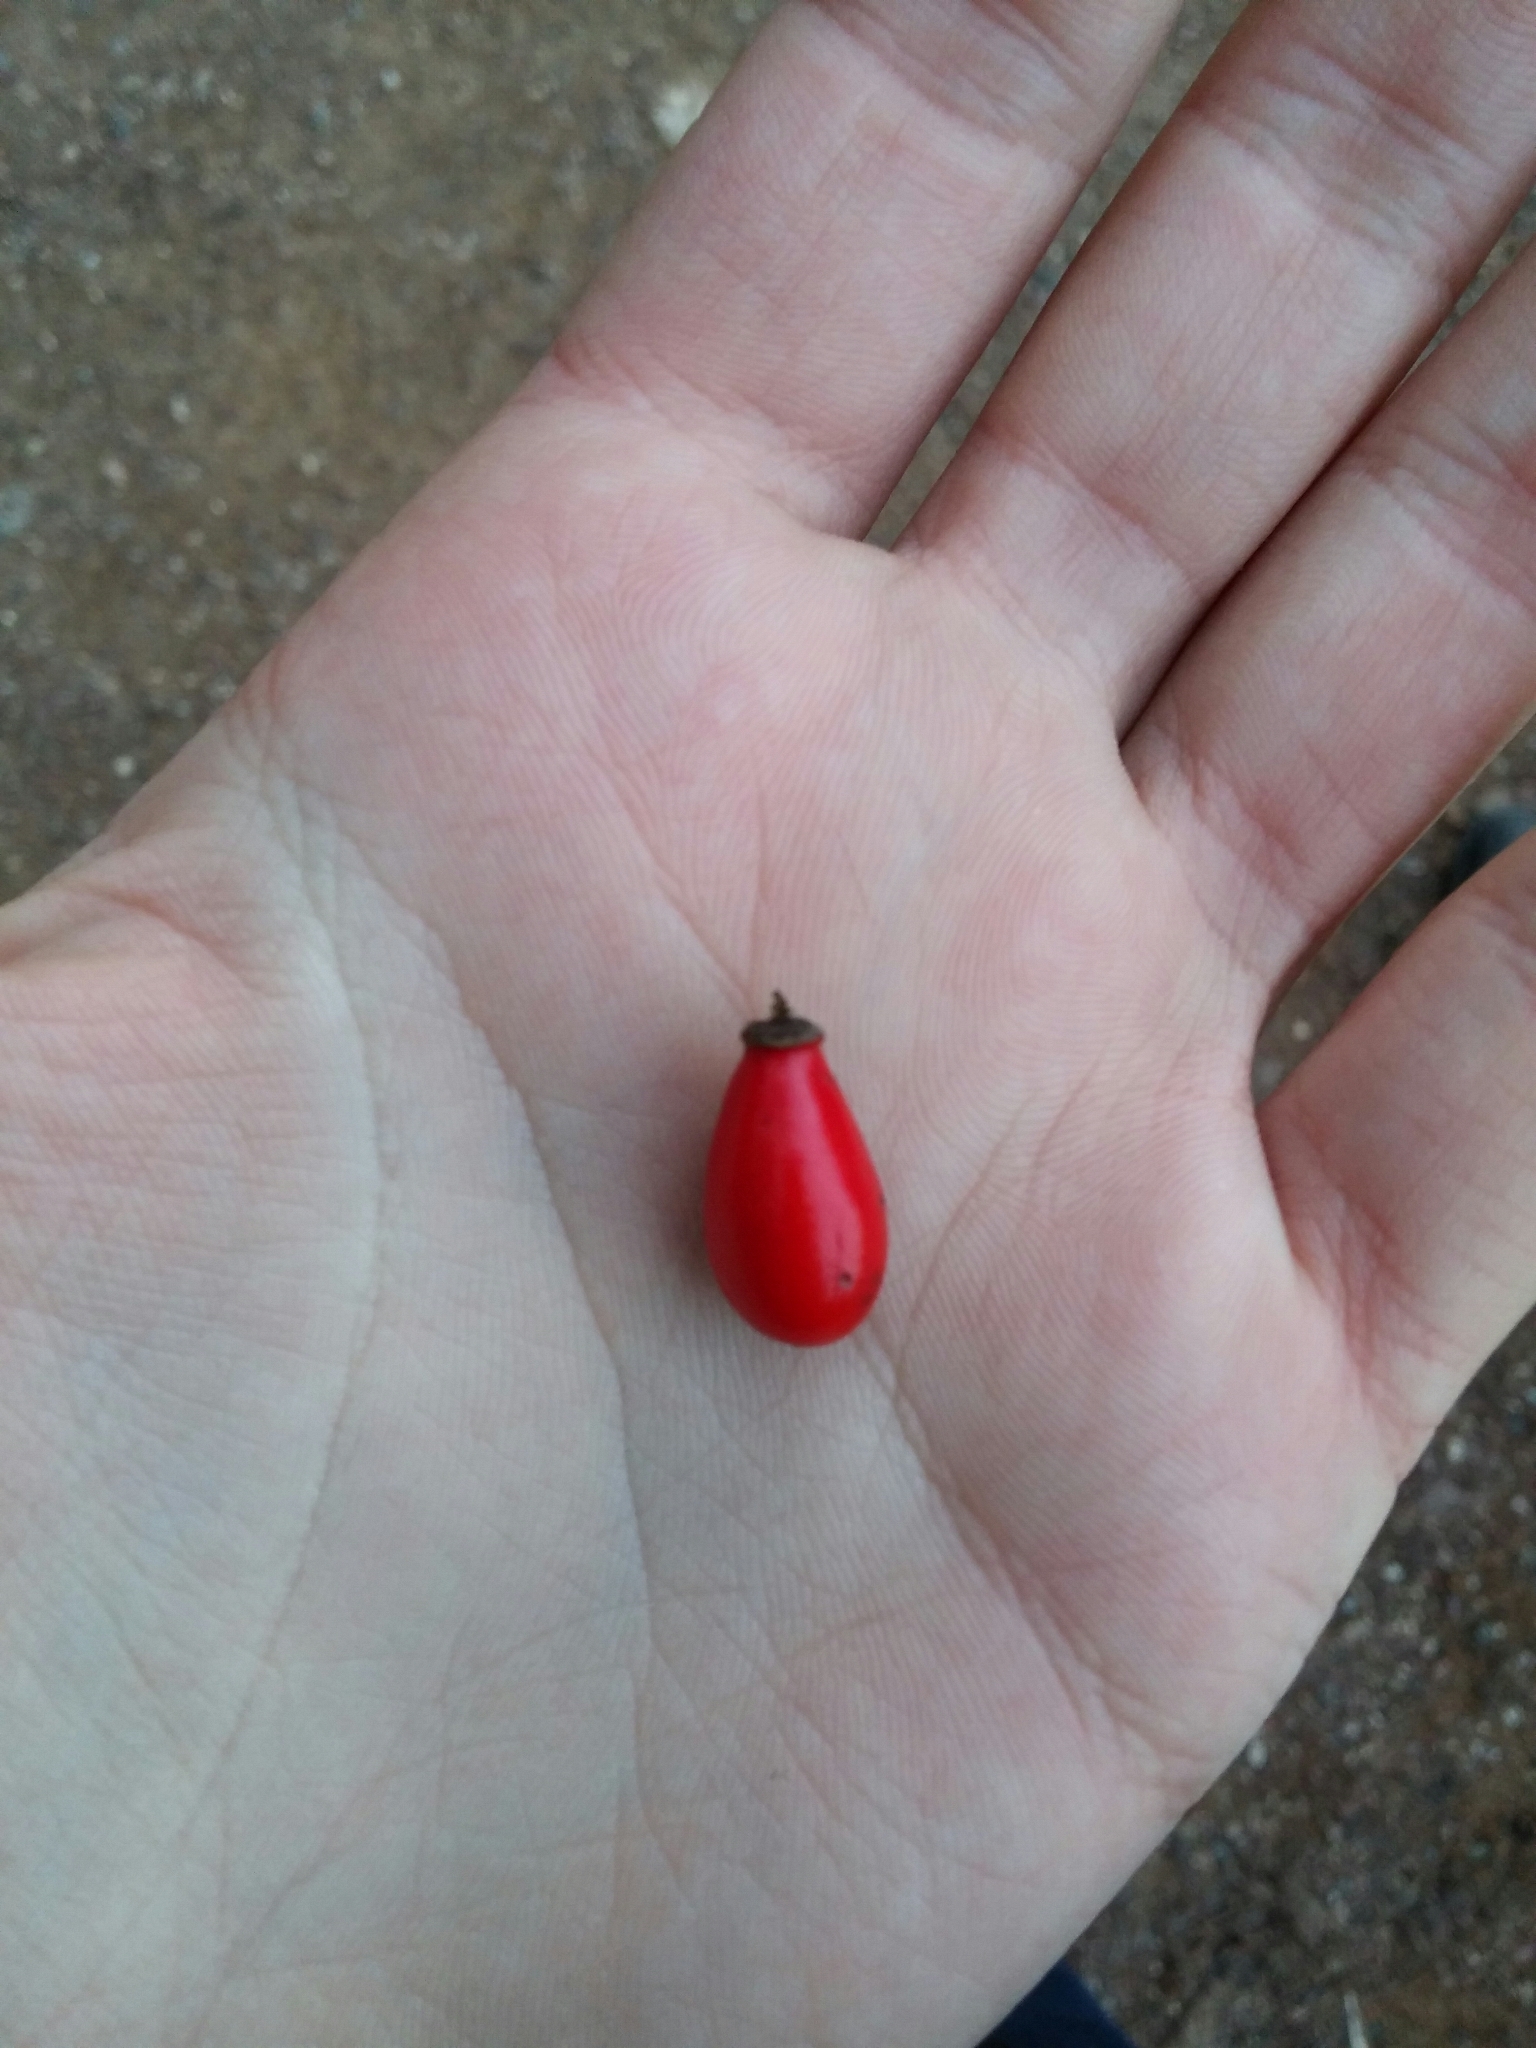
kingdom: Plantae
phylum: Tracheophyta
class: Magnoliopsida
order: Rosales
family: Rosaceae
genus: Rosa
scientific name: Rosa micrantha
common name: Small-flowered sweet-briar
